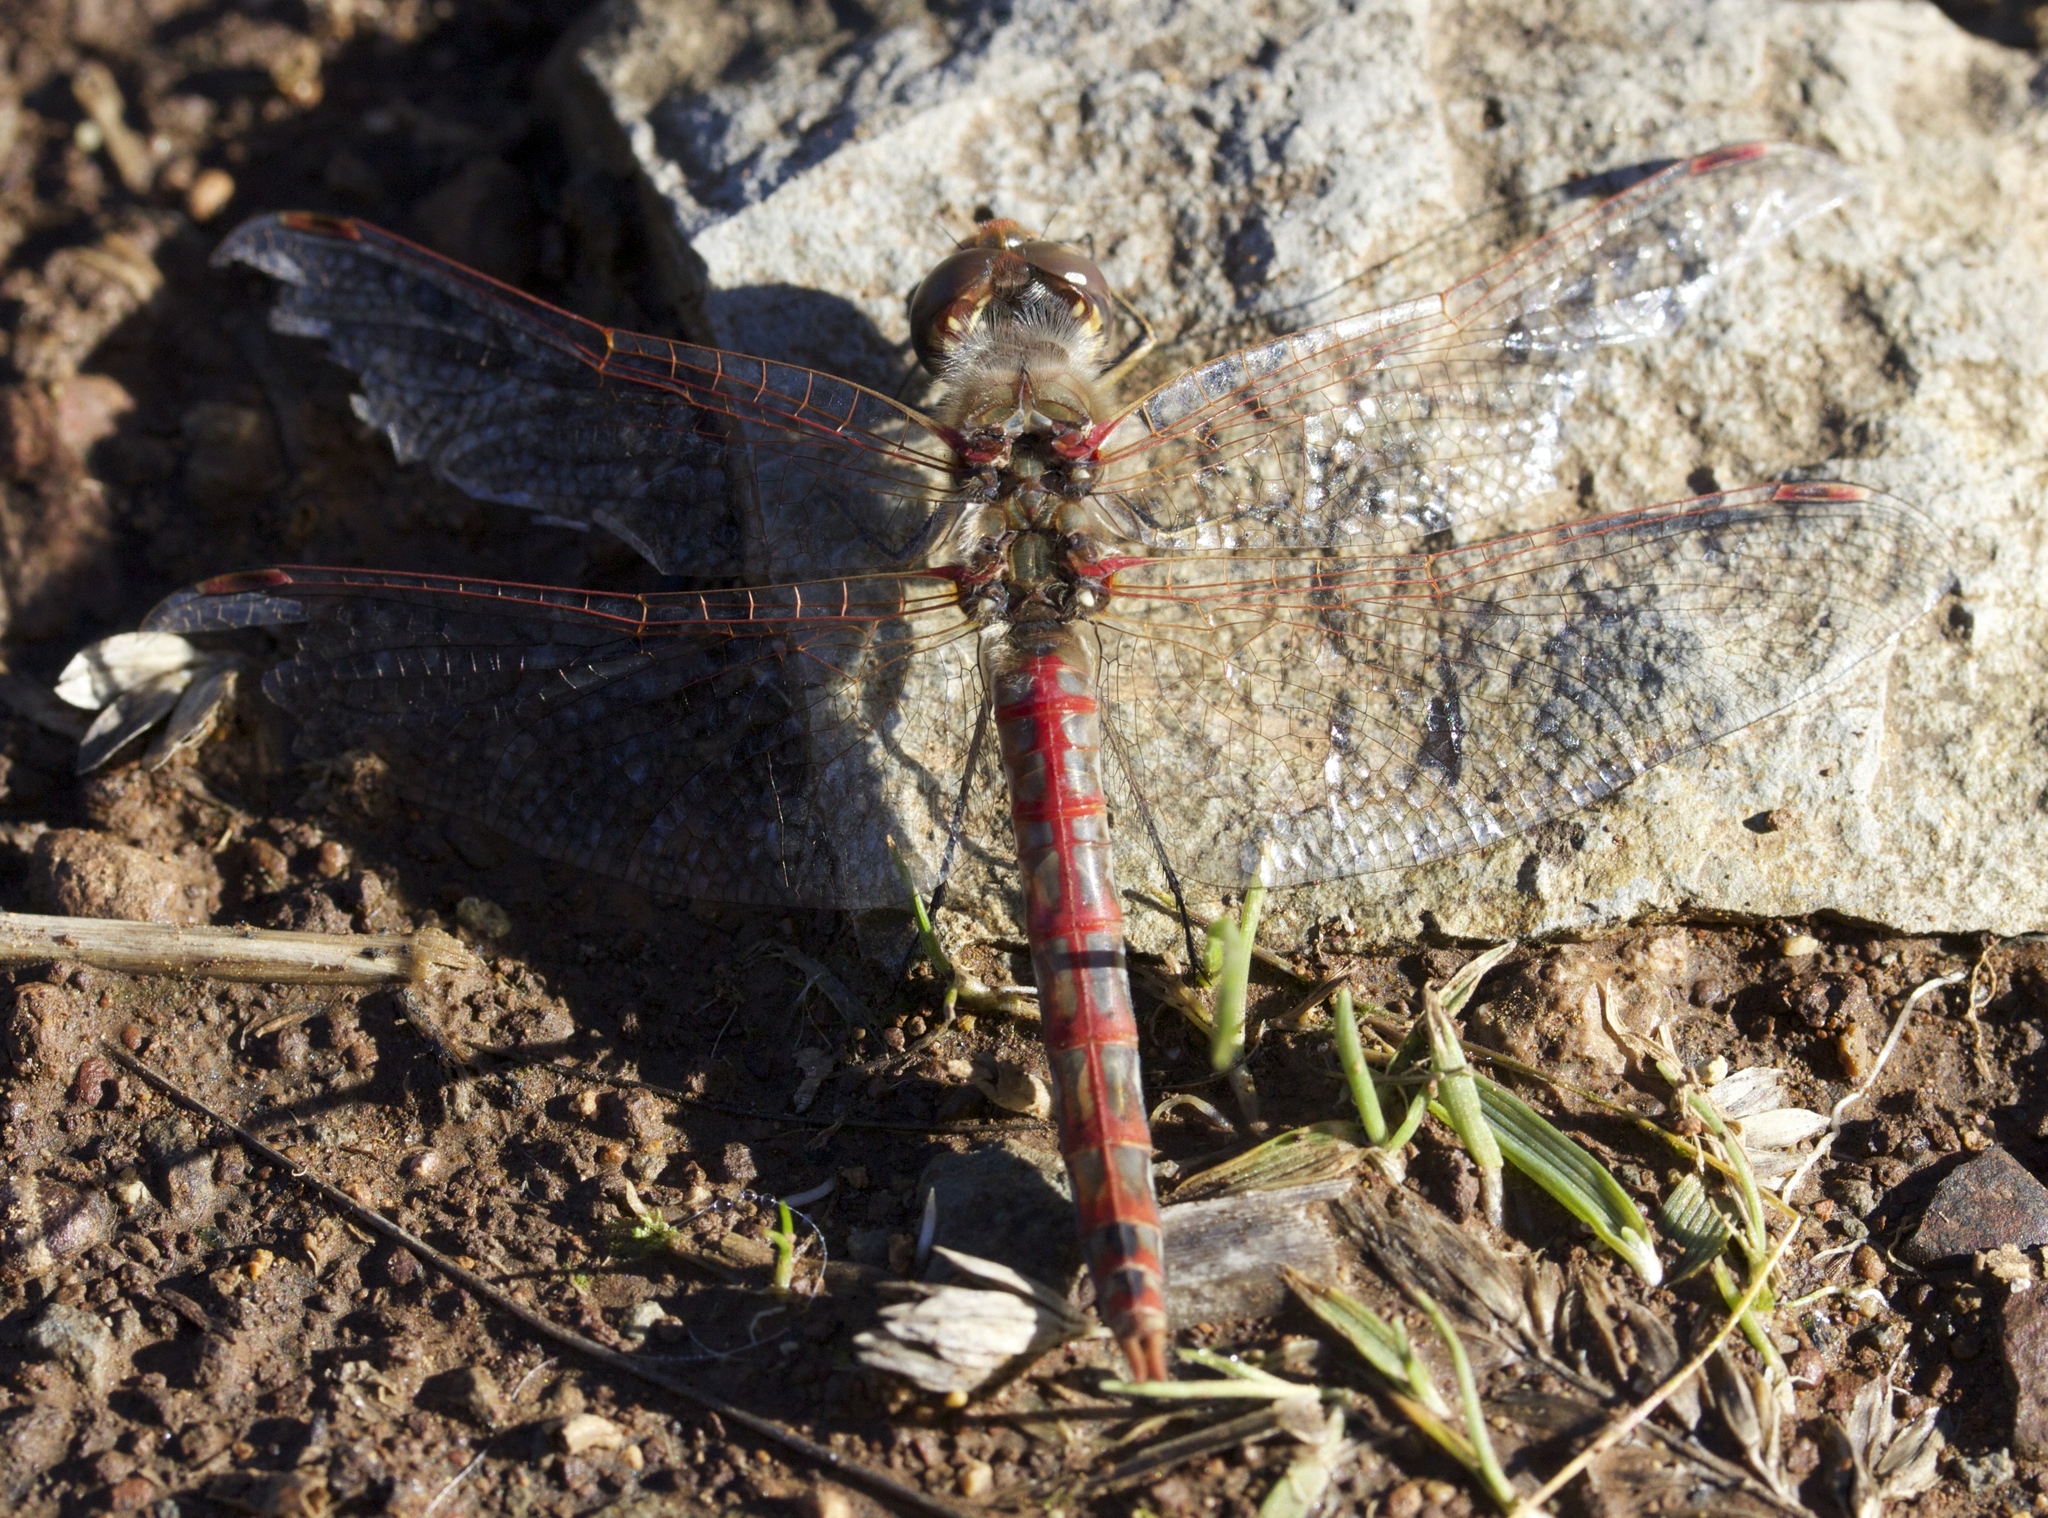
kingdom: Animalia
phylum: Arthropoda
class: Insecta
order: Odonata
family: Libellulidae
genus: Sympetrum
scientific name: Sympetrum corruptum
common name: Variegated meadowhawk
